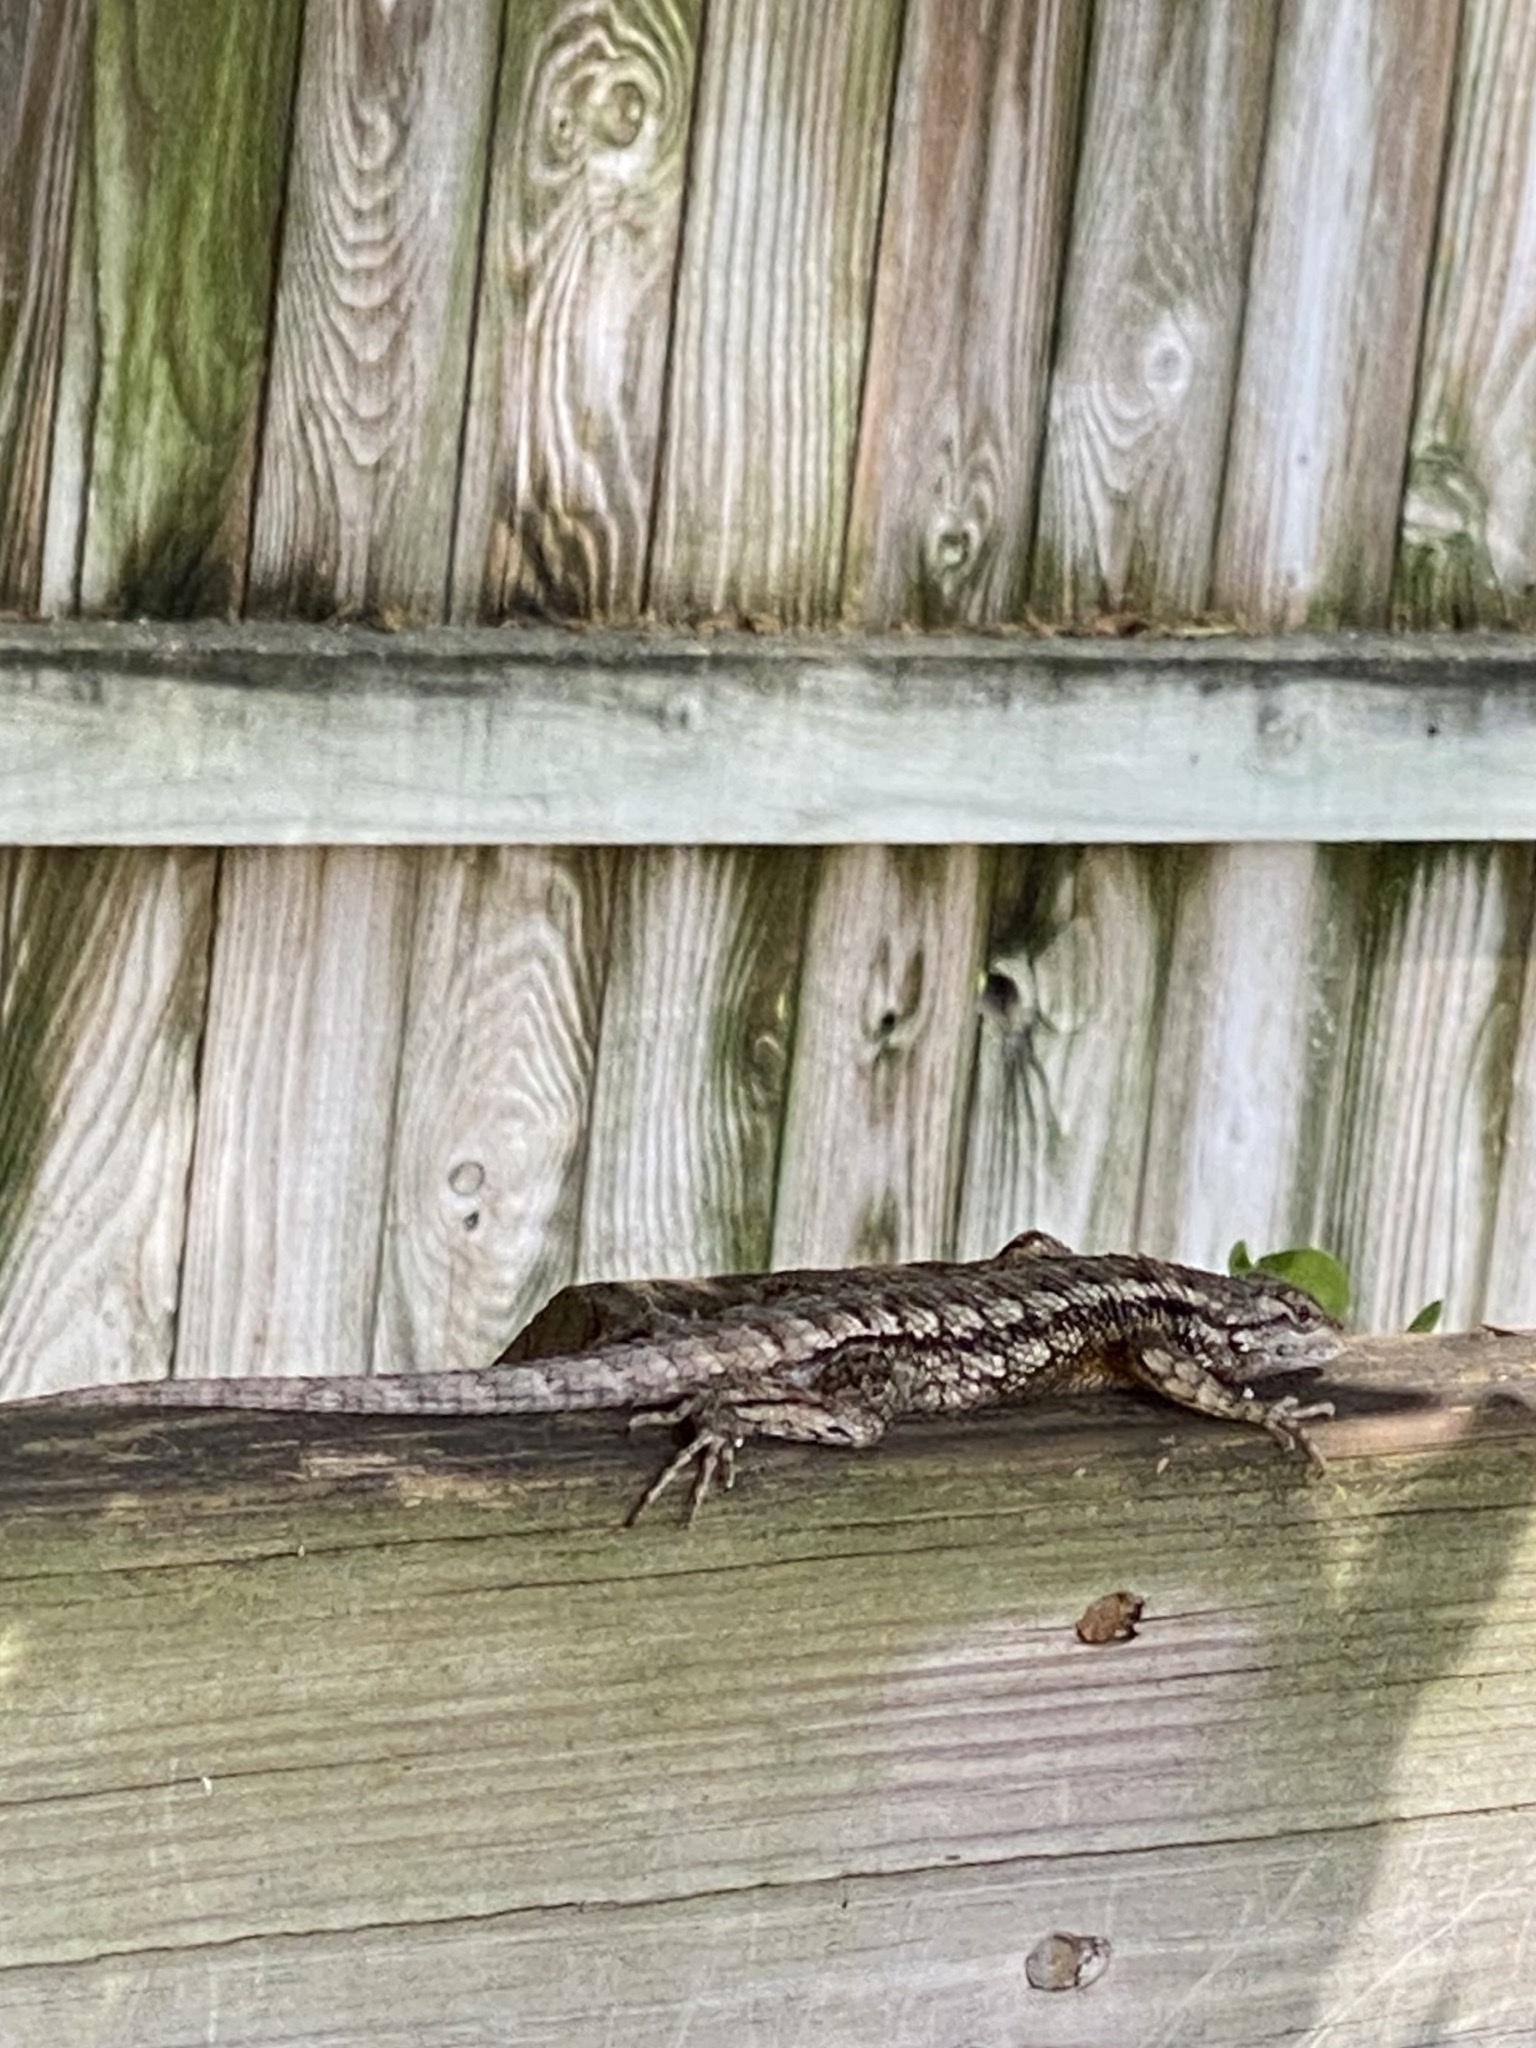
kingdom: Animalia
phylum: Chordata
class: Squamata
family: Phrynosomatidae
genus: Sceloporus
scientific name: Sceloporus olivaceus
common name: Texas spiny lizard
